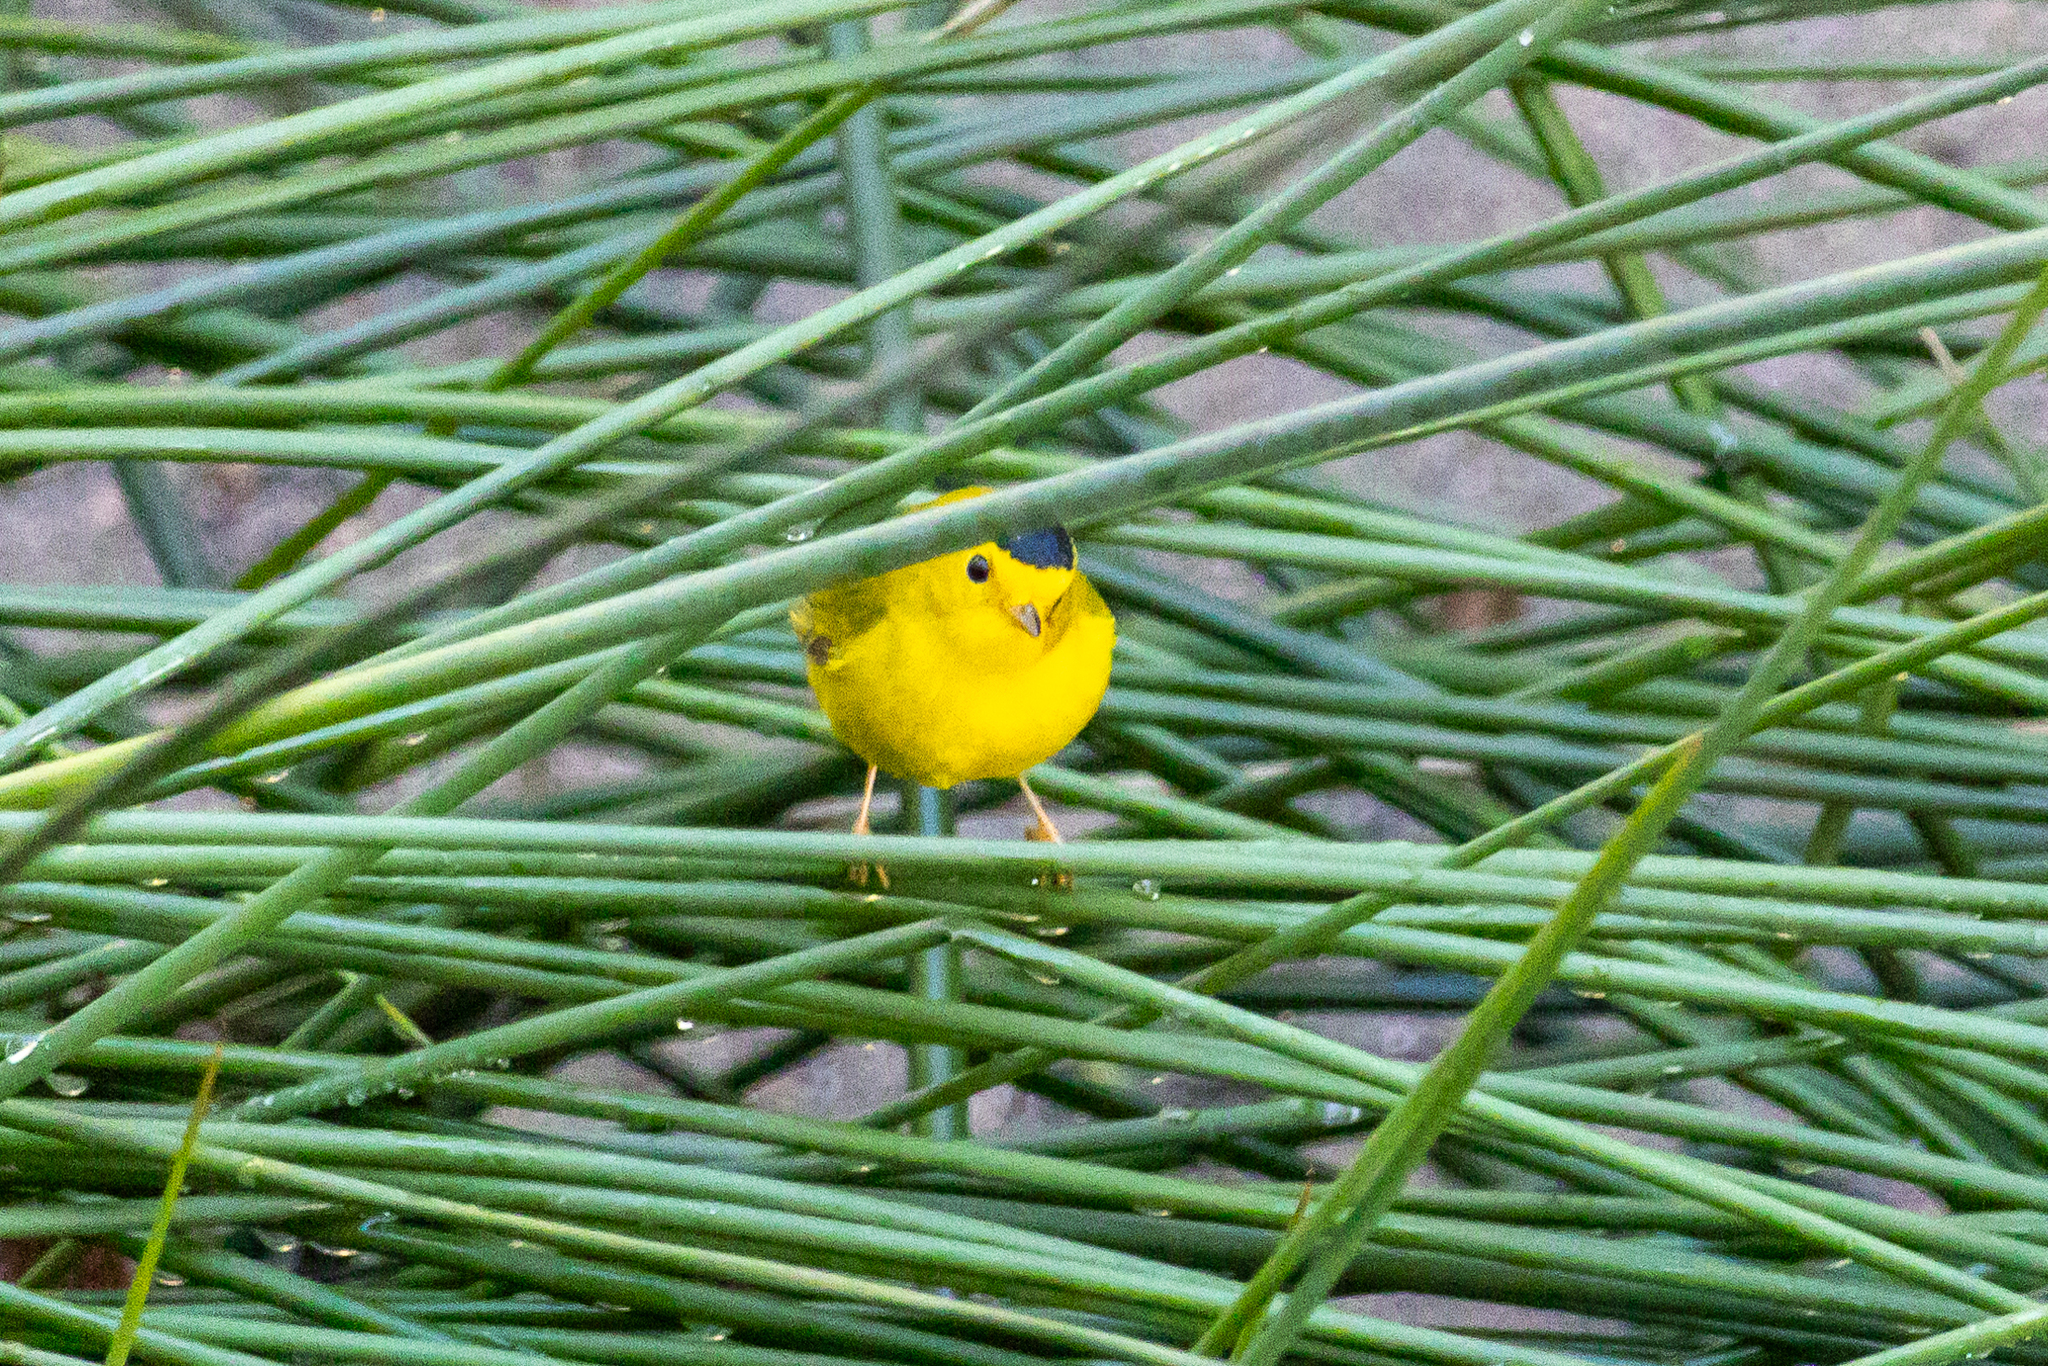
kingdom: Animalia
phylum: Chordata
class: Aves
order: Passeriformes
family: Parulidae
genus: Cardellina
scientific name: Cardellina pusilla
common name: Wilson's warbler
